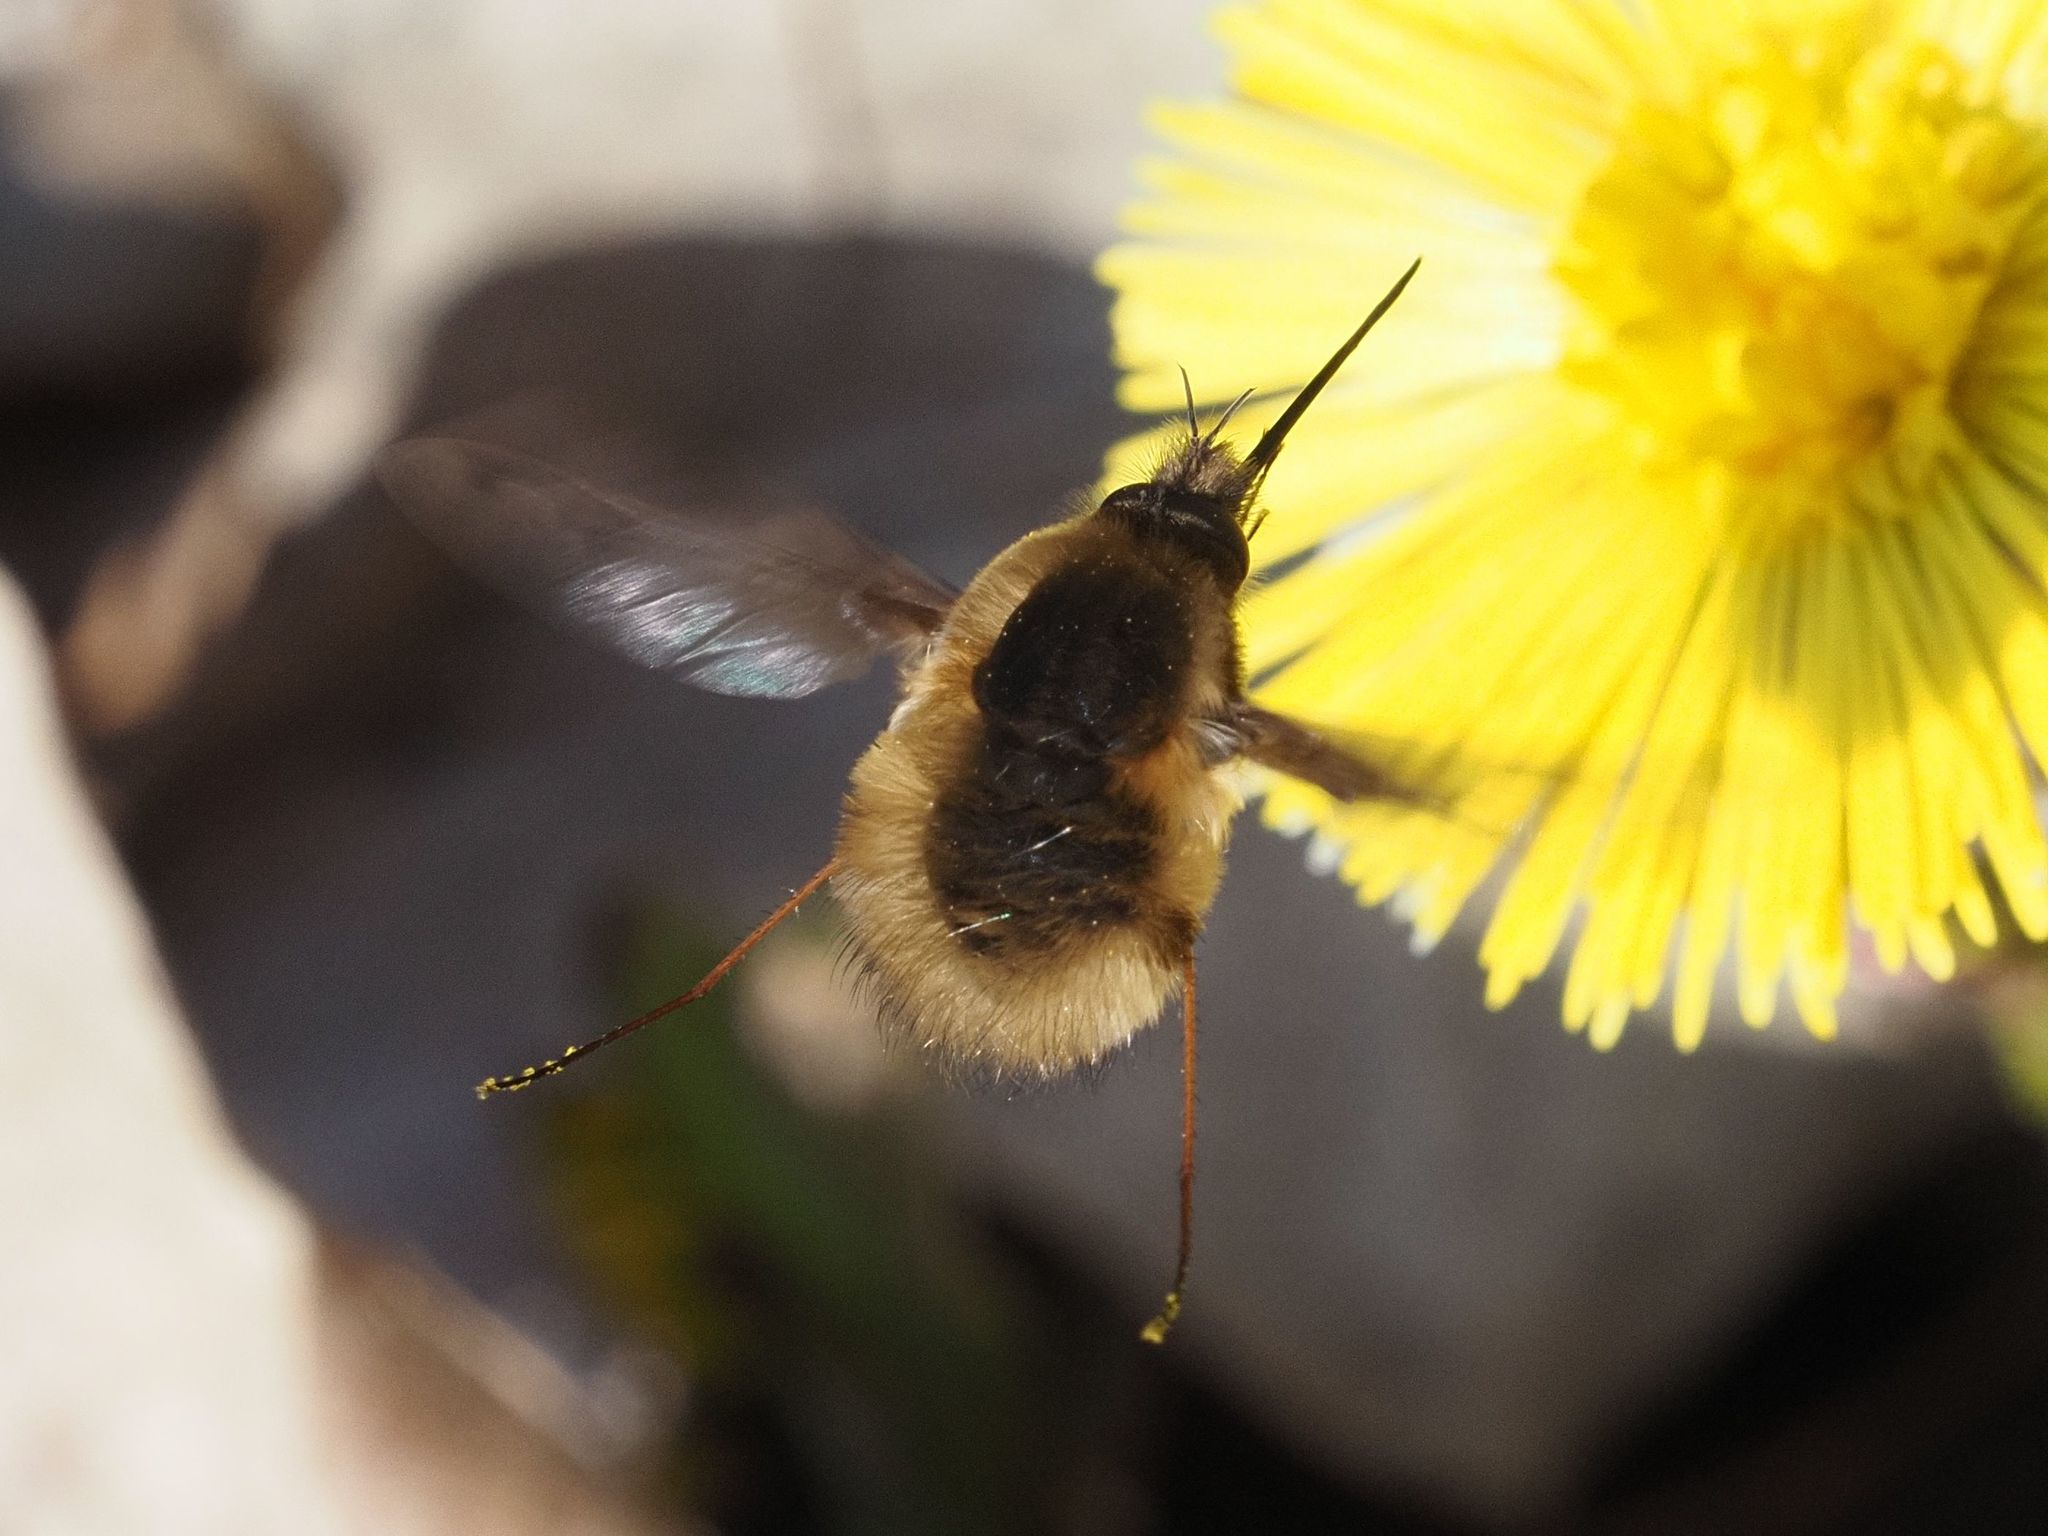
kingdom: Animalia
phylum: Arthropoda
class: Insecta
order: Diptera
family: Bombyliidae
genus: Bombylius
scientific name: Bombylius major
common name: Bee fly
